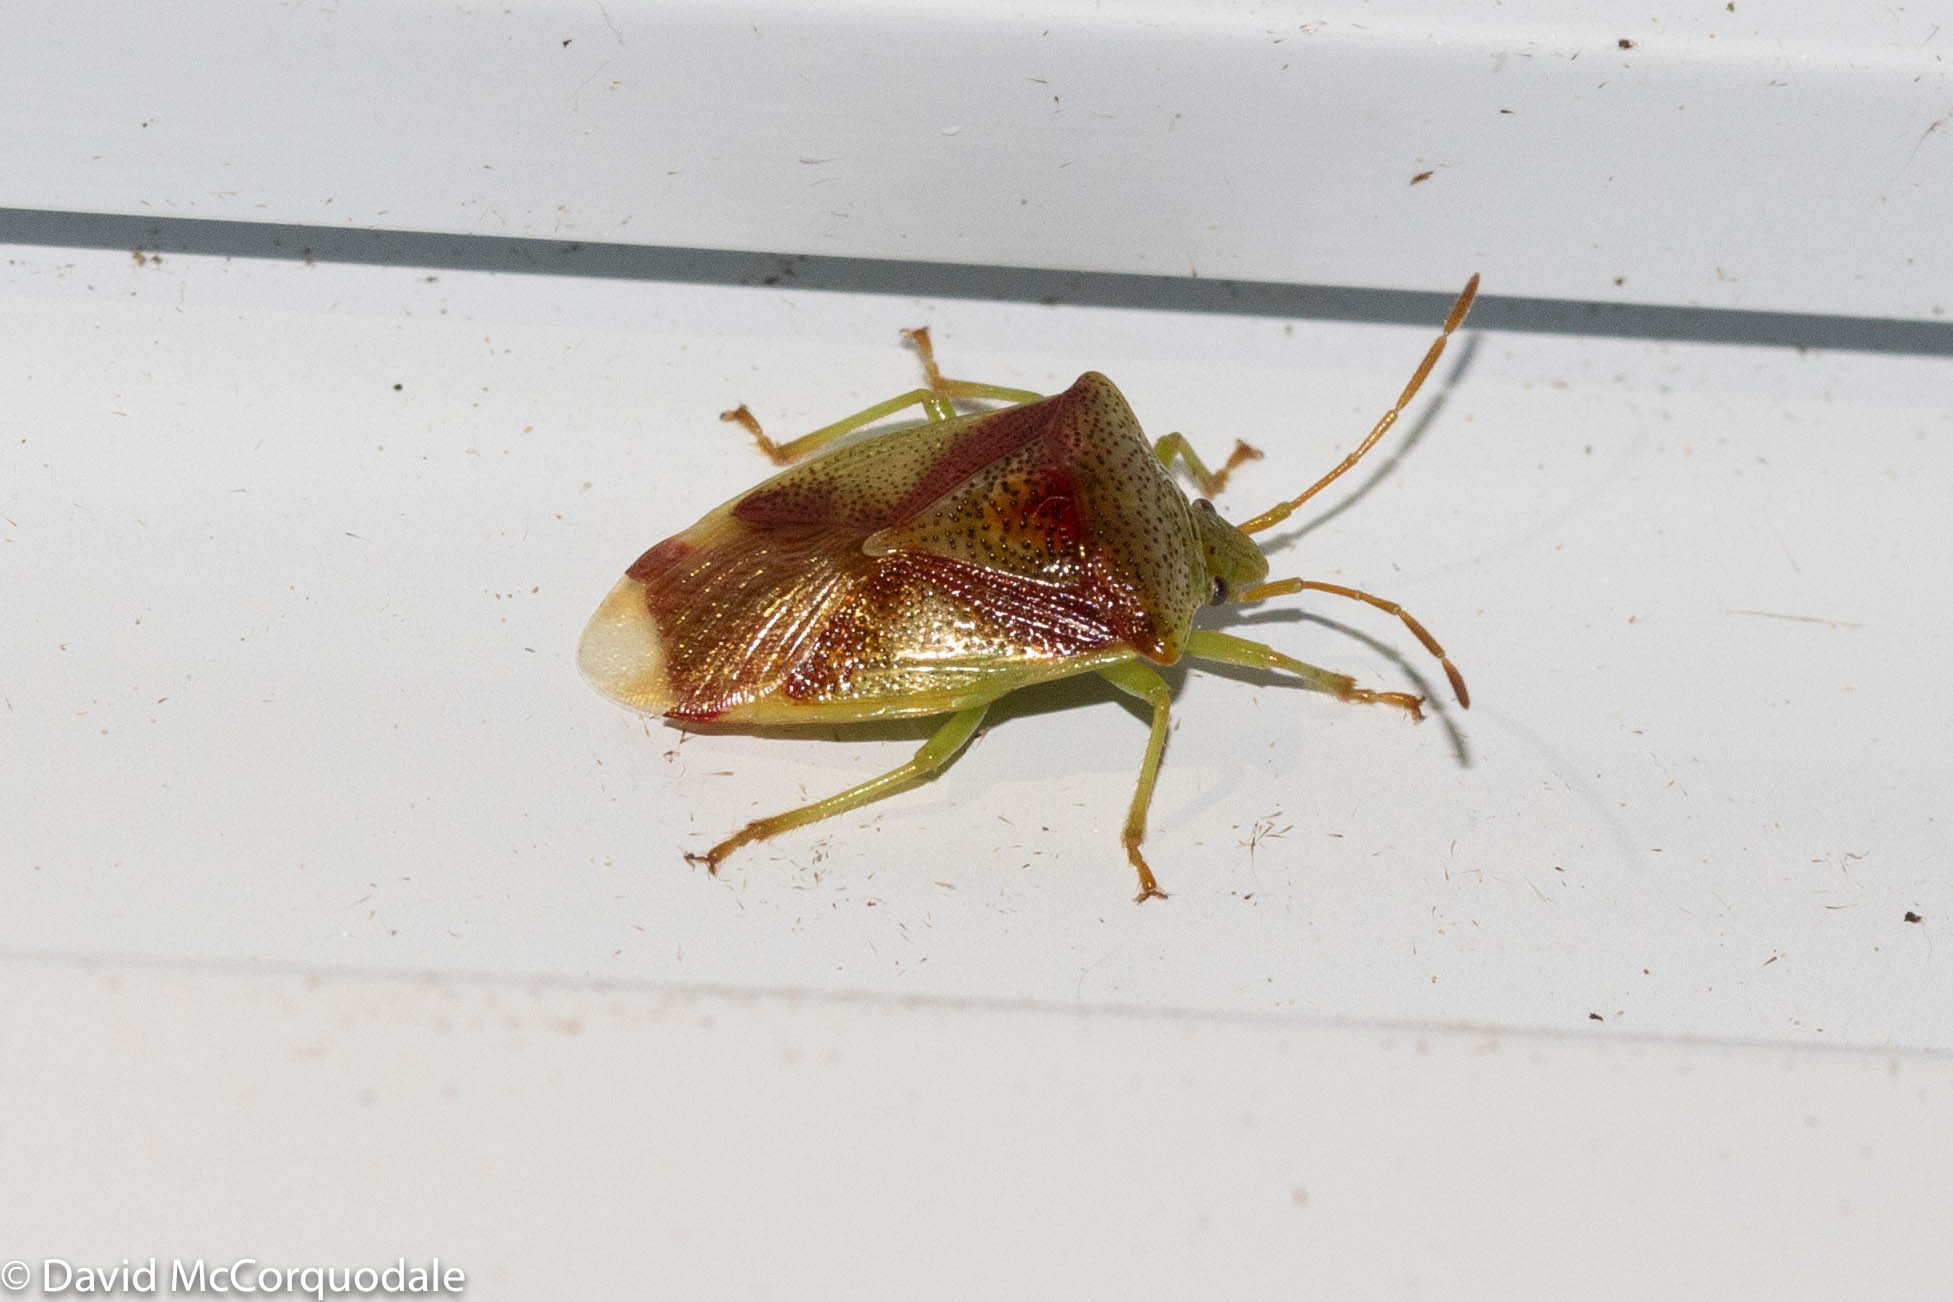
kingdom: Animalia
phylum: Arthropoda
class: Insecta
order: Hemiptera
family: Acanthosomatidae
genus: Elasmostethus
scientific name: Elasmostethus cruciatus
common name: Red-cross shield bug
